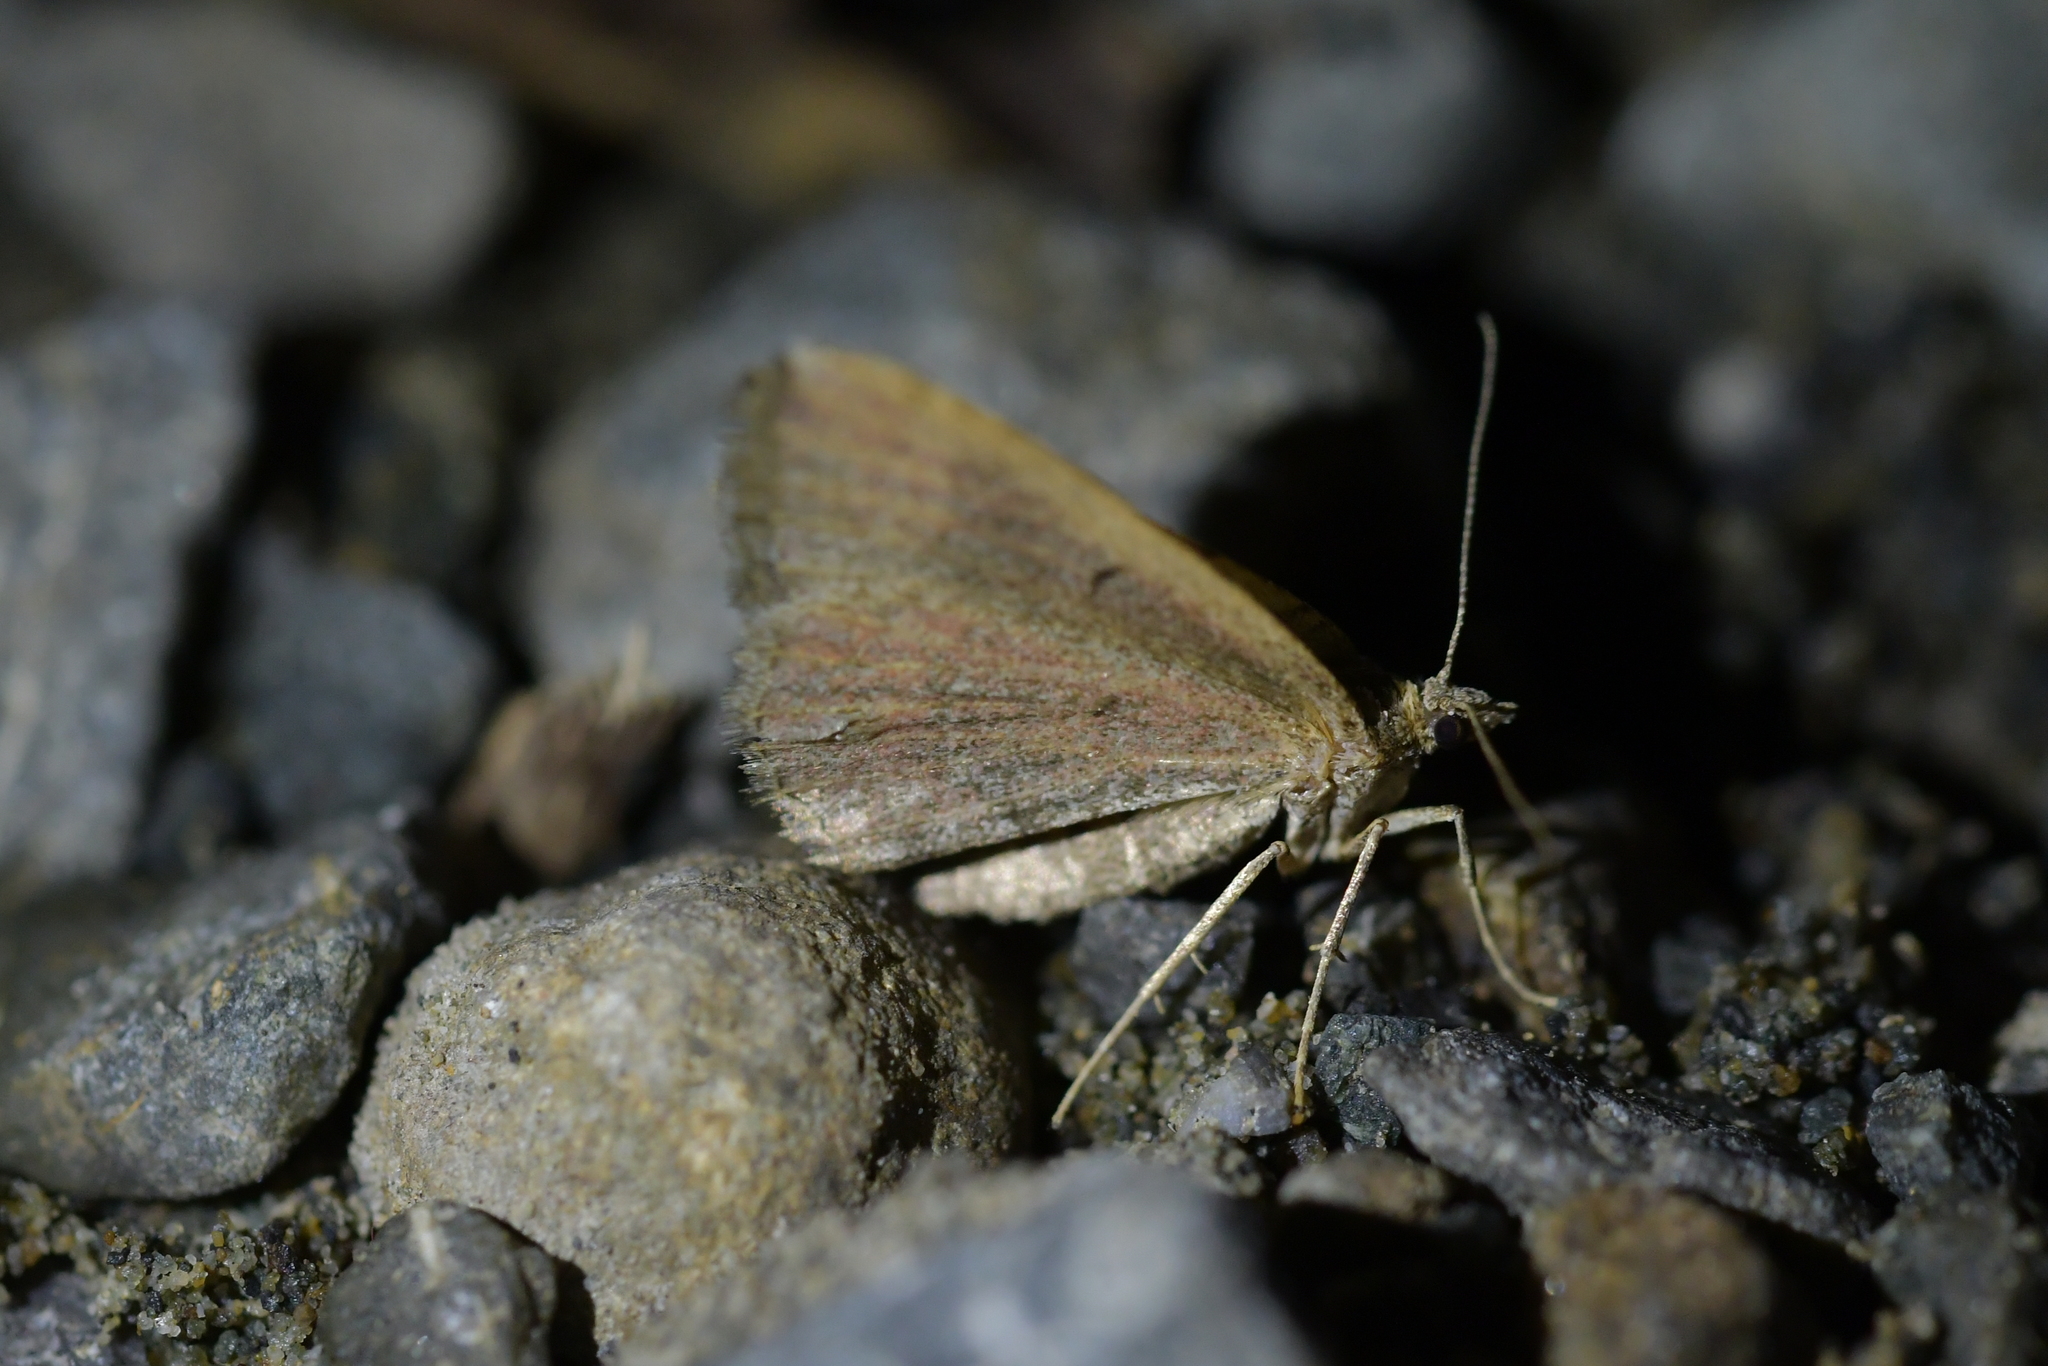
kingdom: Animalia
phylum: Arthropoda
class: Insecta
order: Lepidoptera
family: Geometridae
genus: Epyaxa
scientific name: Epyaxa rosearia
